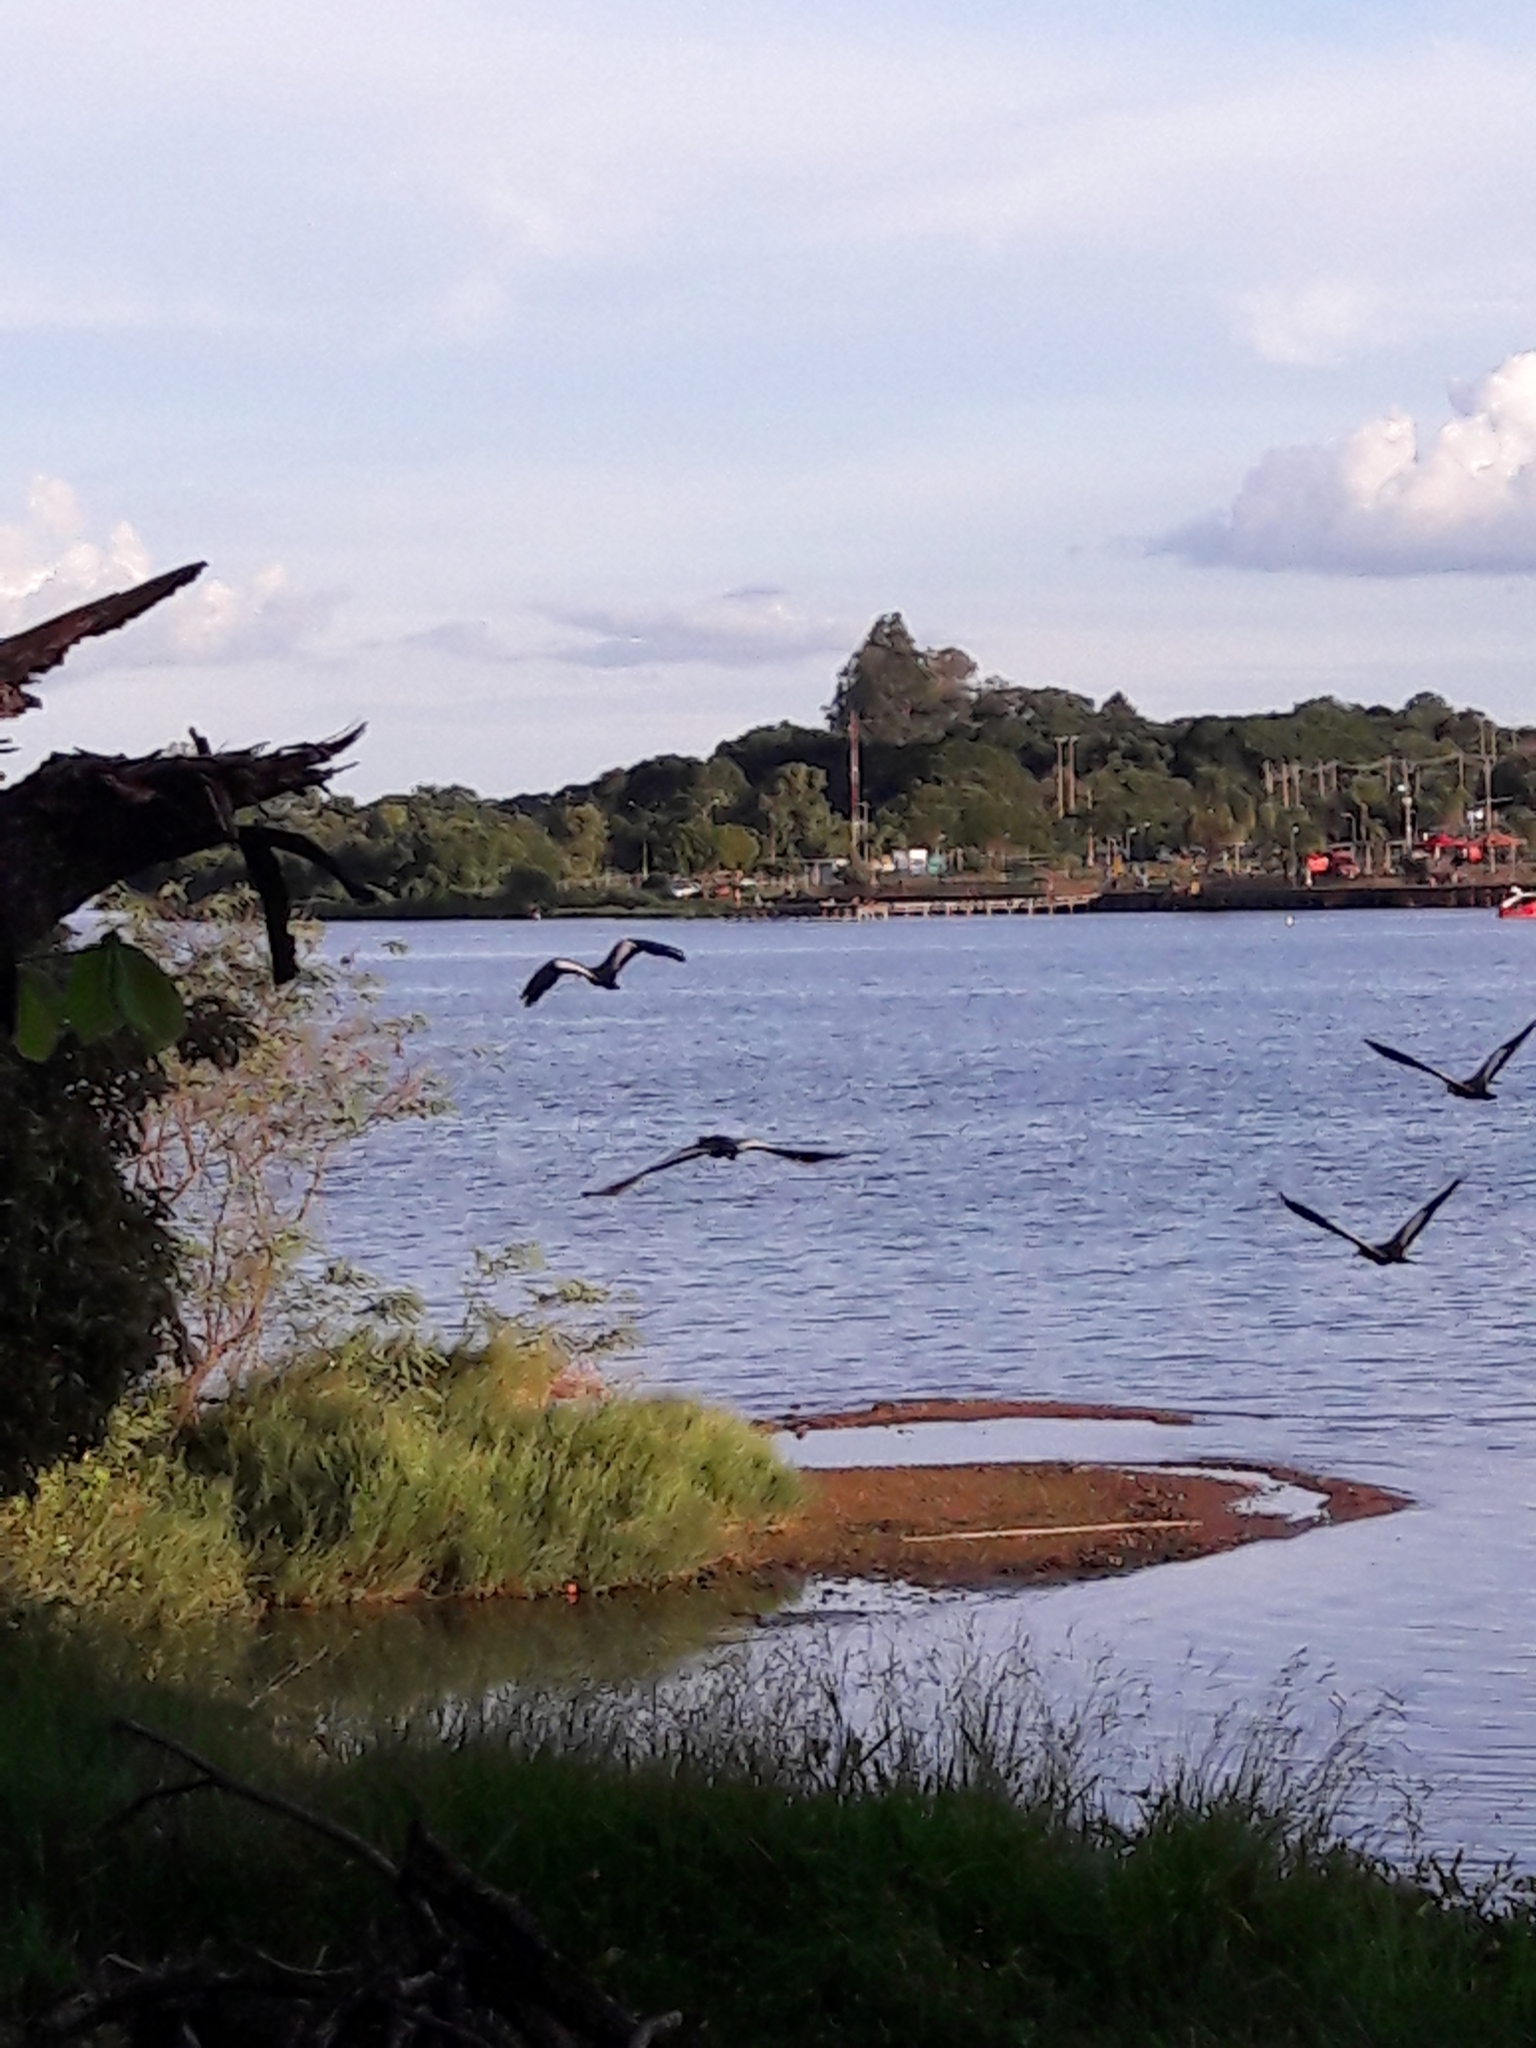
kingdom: Animalia
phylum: Chordata
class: Aves
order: Pelecaniformes
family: Threskiornithidae
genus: Theristicus
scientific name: Theristicus caudatus
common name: Buff-necked ibis
